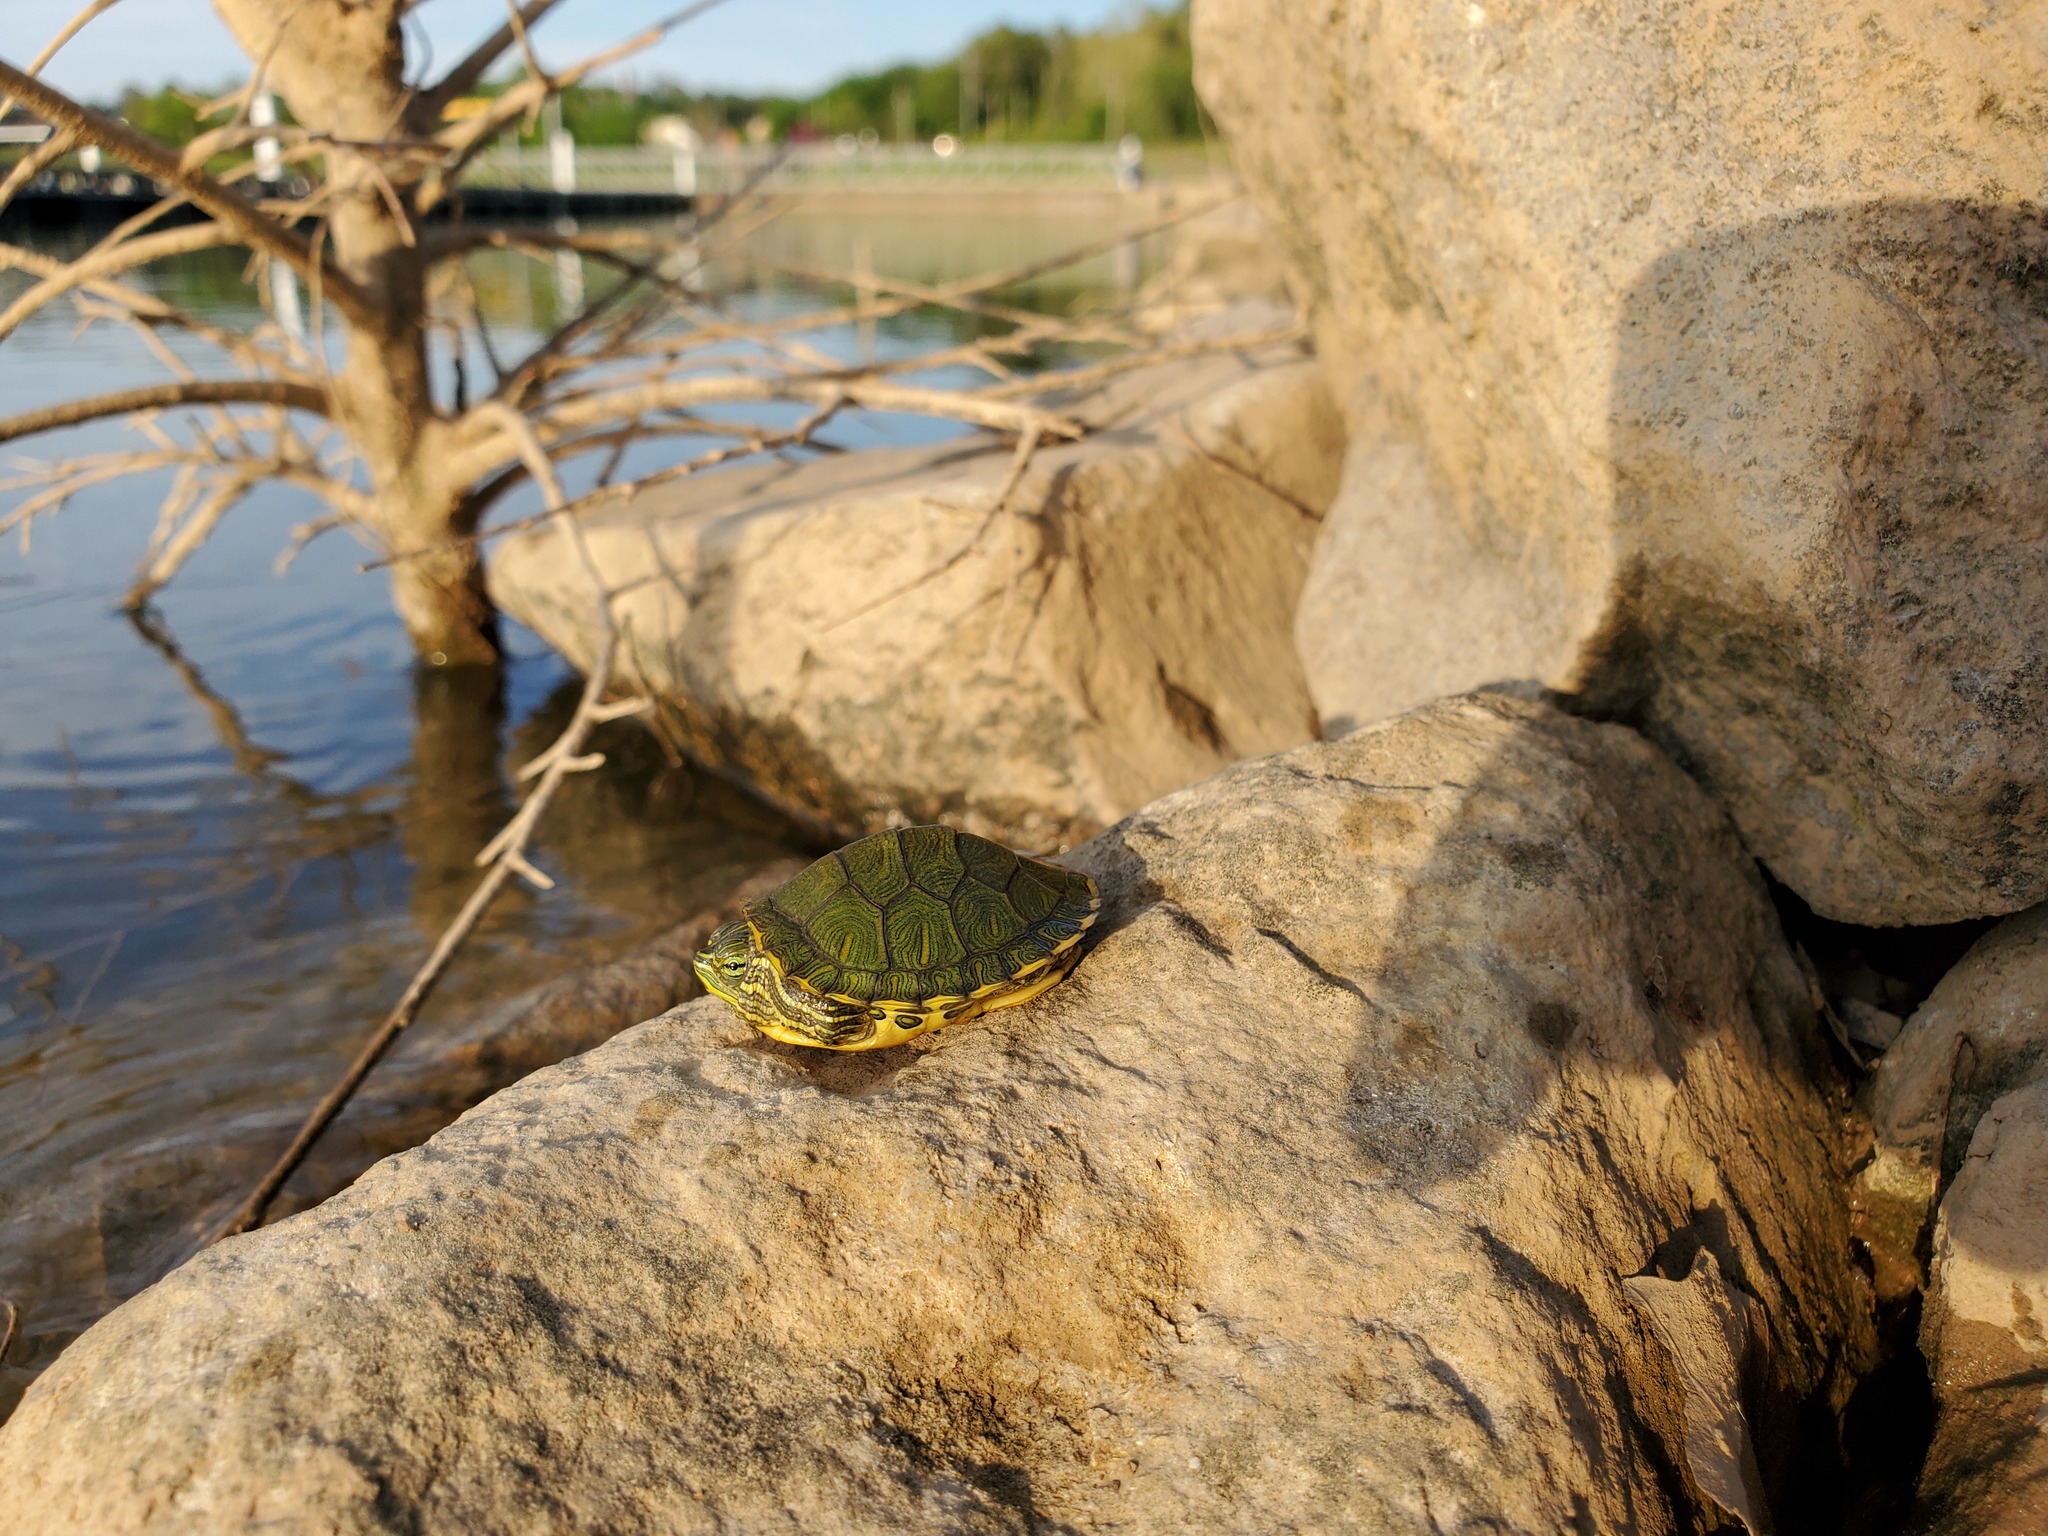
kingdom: Animalia
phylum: Chordata
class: Testudines
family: Emydidae
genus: Trachemys
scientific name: Trachemys scripta
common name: Slider
